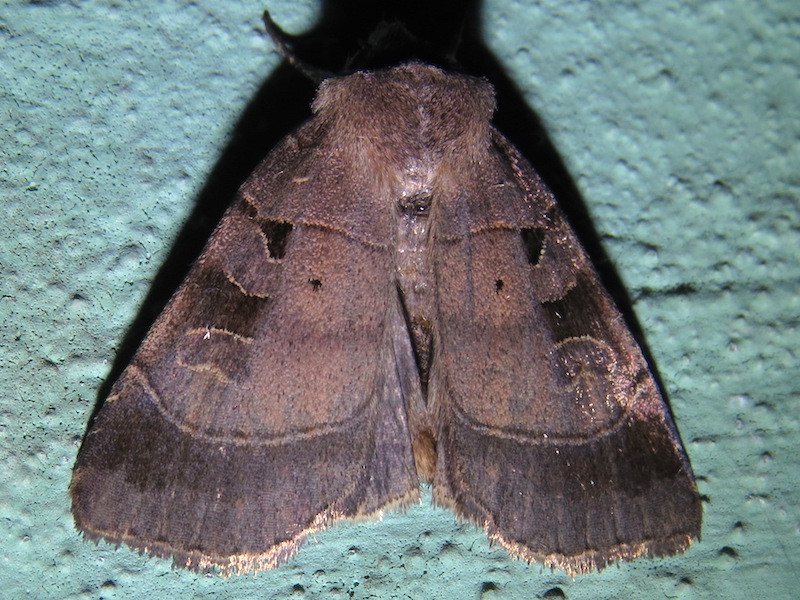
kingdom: Animalia
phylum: Arthropoda
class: Insecta
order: Lepidoptera
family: Noctuidae
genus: Agnorisma
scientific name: Agnorisma badinodis
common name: Pale-banded dart
